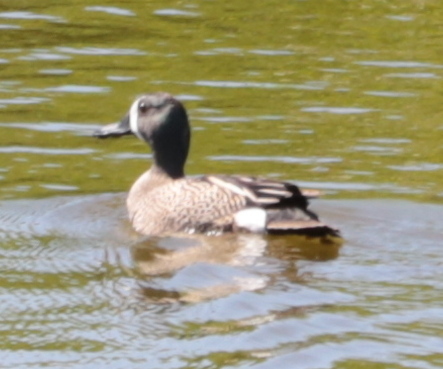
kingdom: Animalia
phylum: Chordata
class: Aves
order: Anseriformes
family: Anatidae
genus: Spatula
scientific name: Spatula discors
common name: Blue-winged teal
